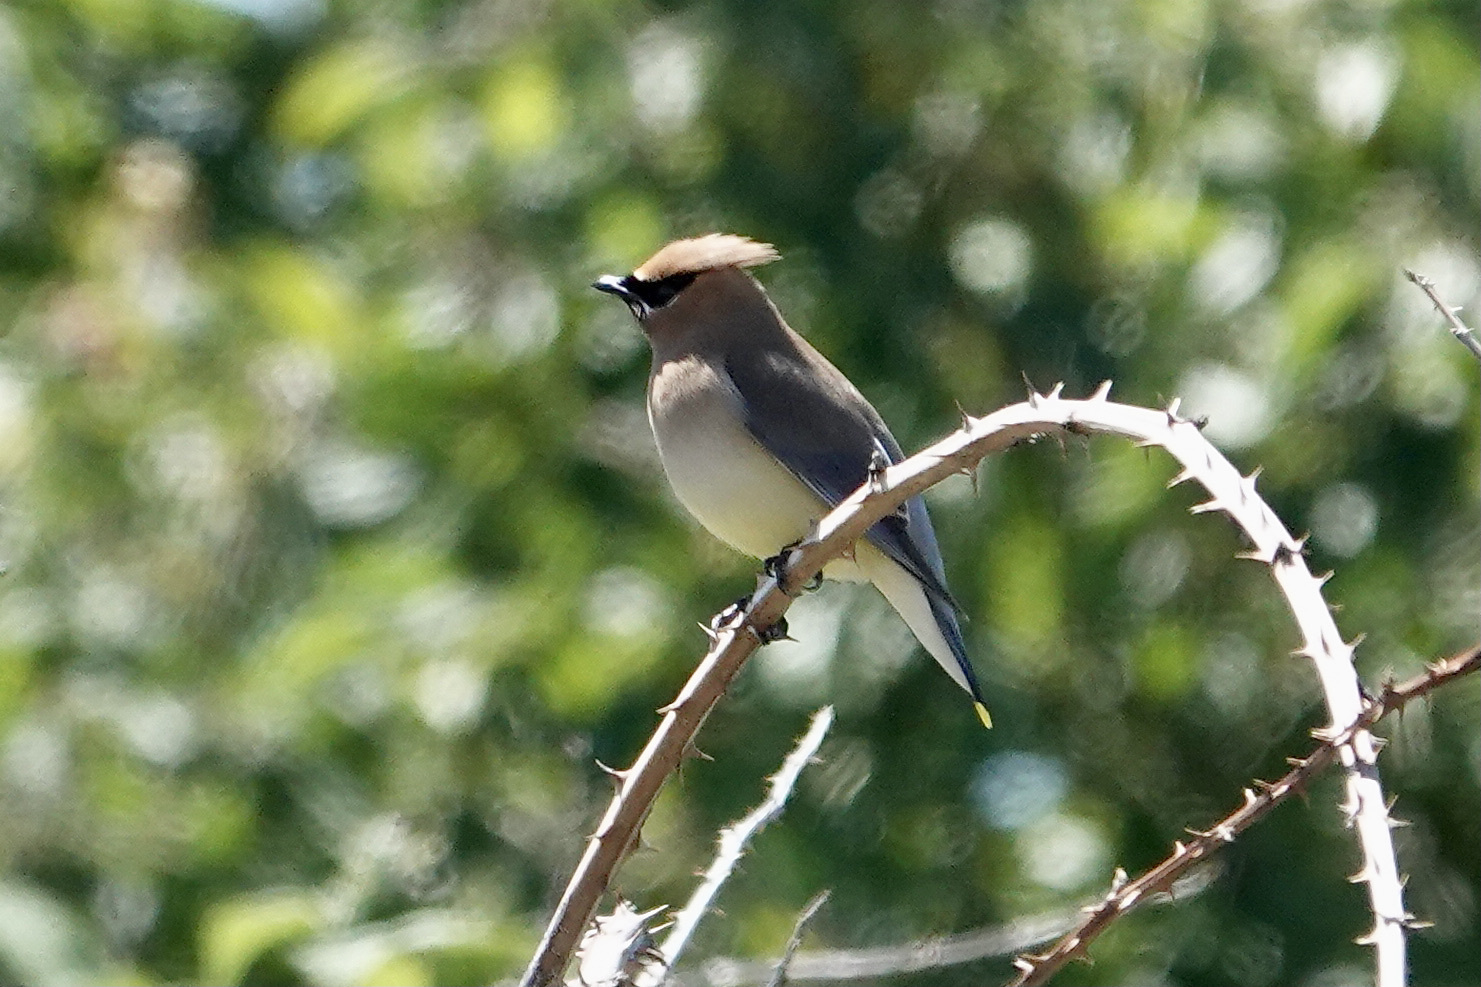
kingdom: Animalia
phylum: Chordata
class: Aves
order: Passeriformes
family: Bombycillidae
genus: Bombycilla
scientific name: Bombycilla cedrorum
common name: Cedar waxwing
